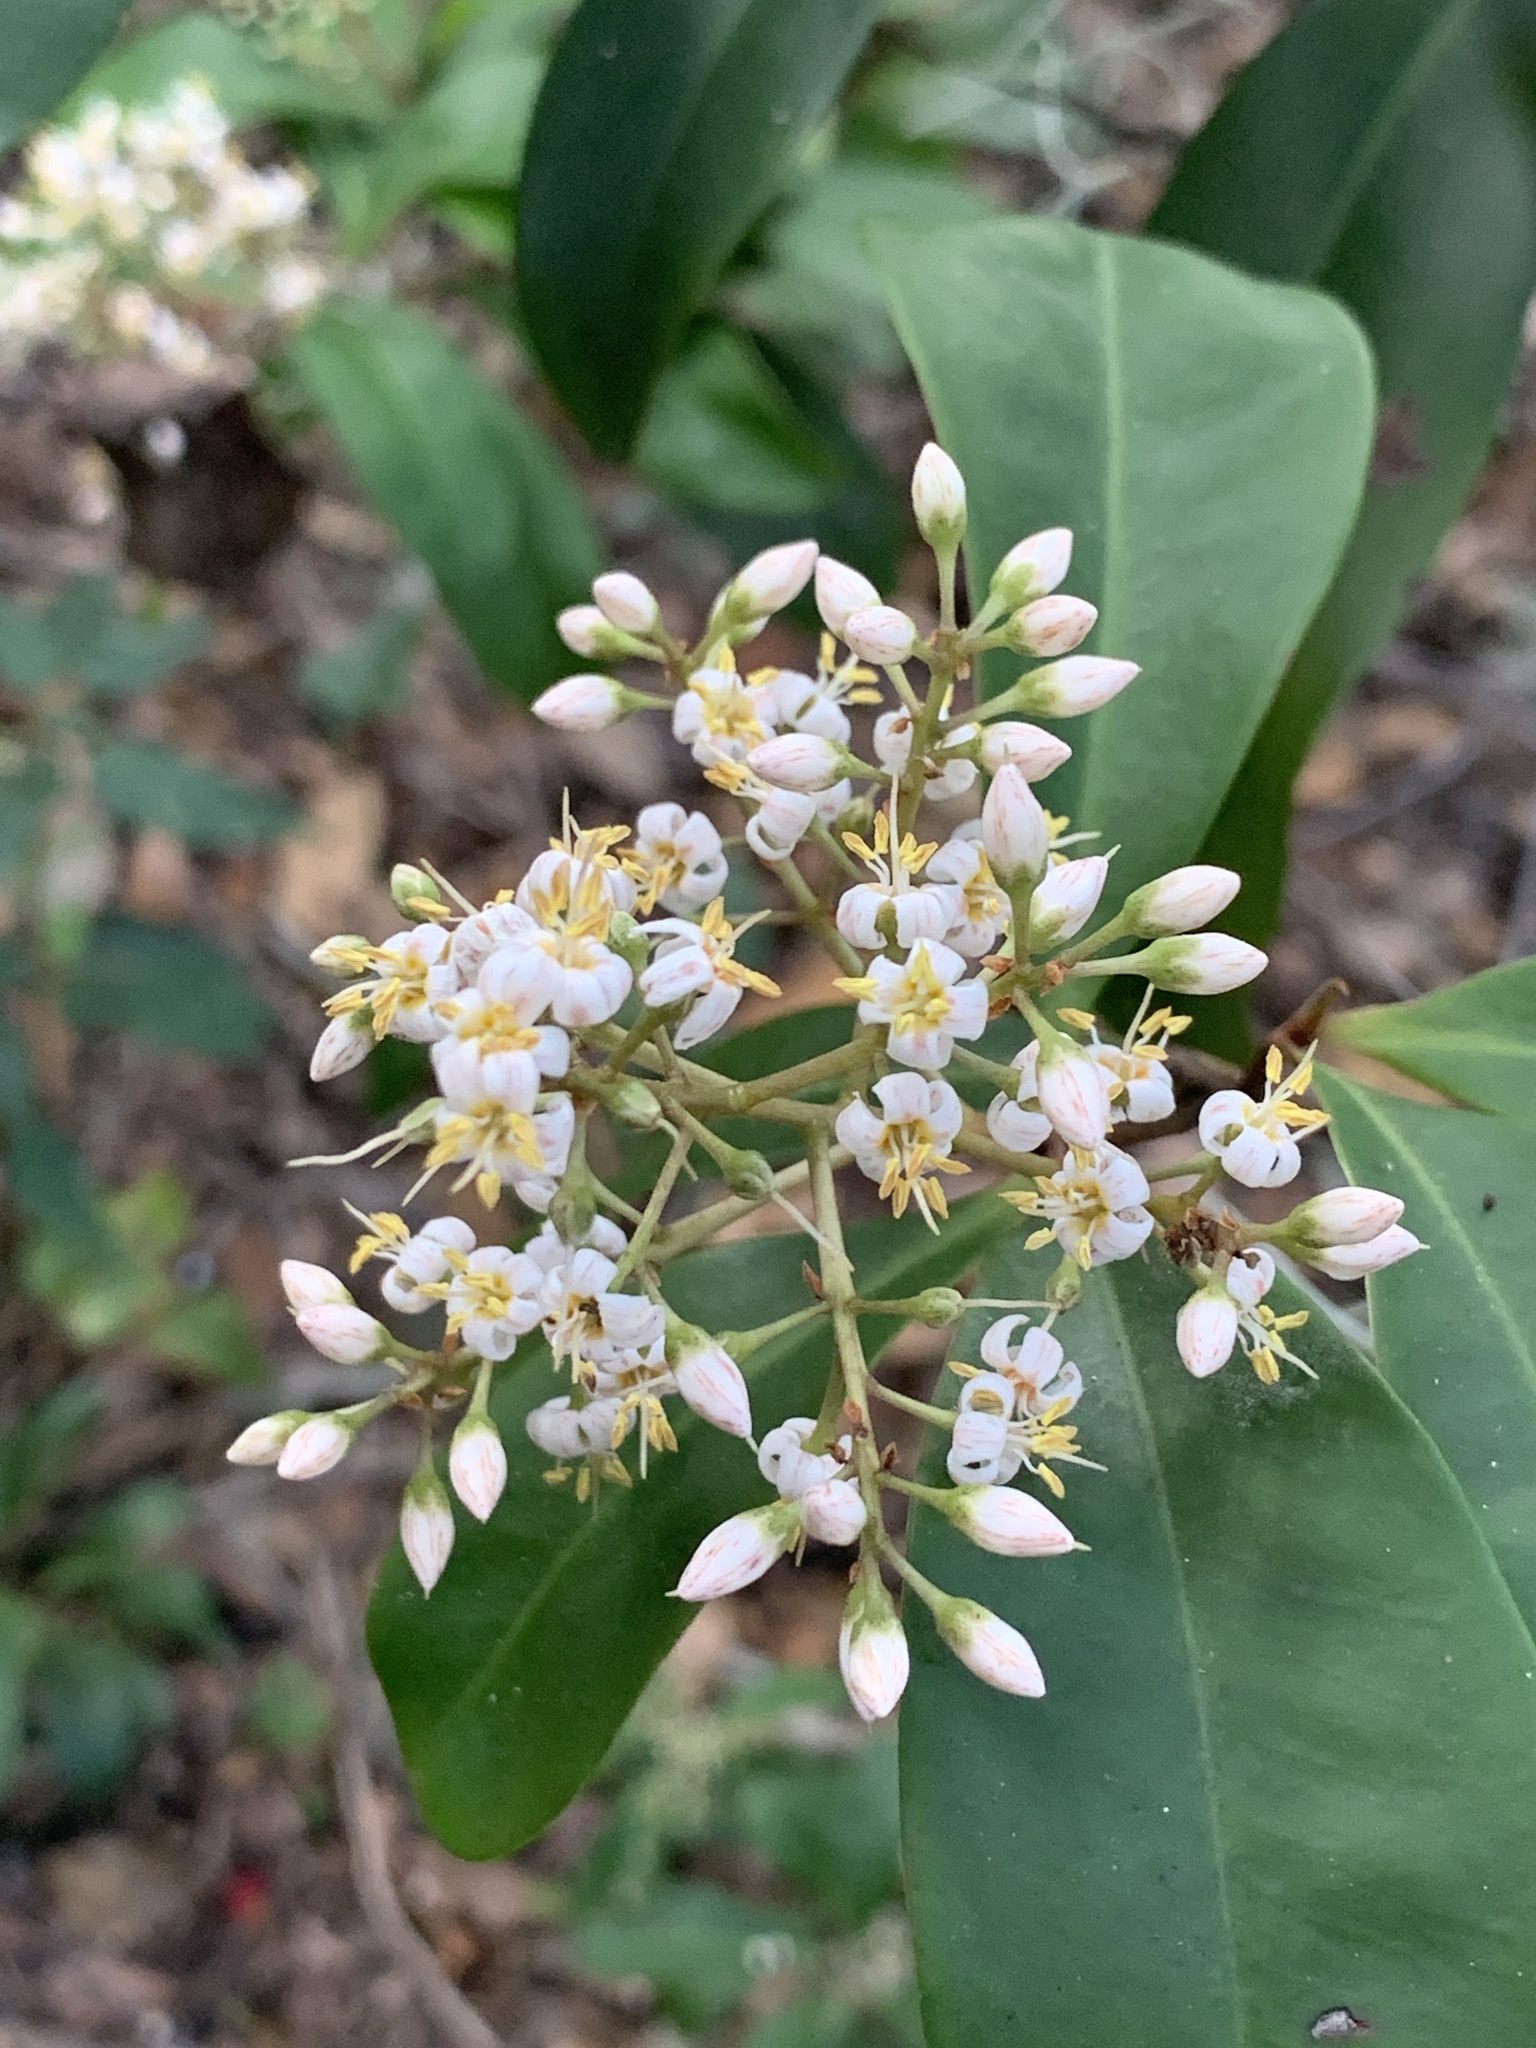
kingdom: Plantae
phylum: Tracheophyta
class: Magnoliopsida
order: Ericales
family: Primulaceae
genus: Ardisia
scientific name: Ardisia escallonioides
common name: Island marlberry
